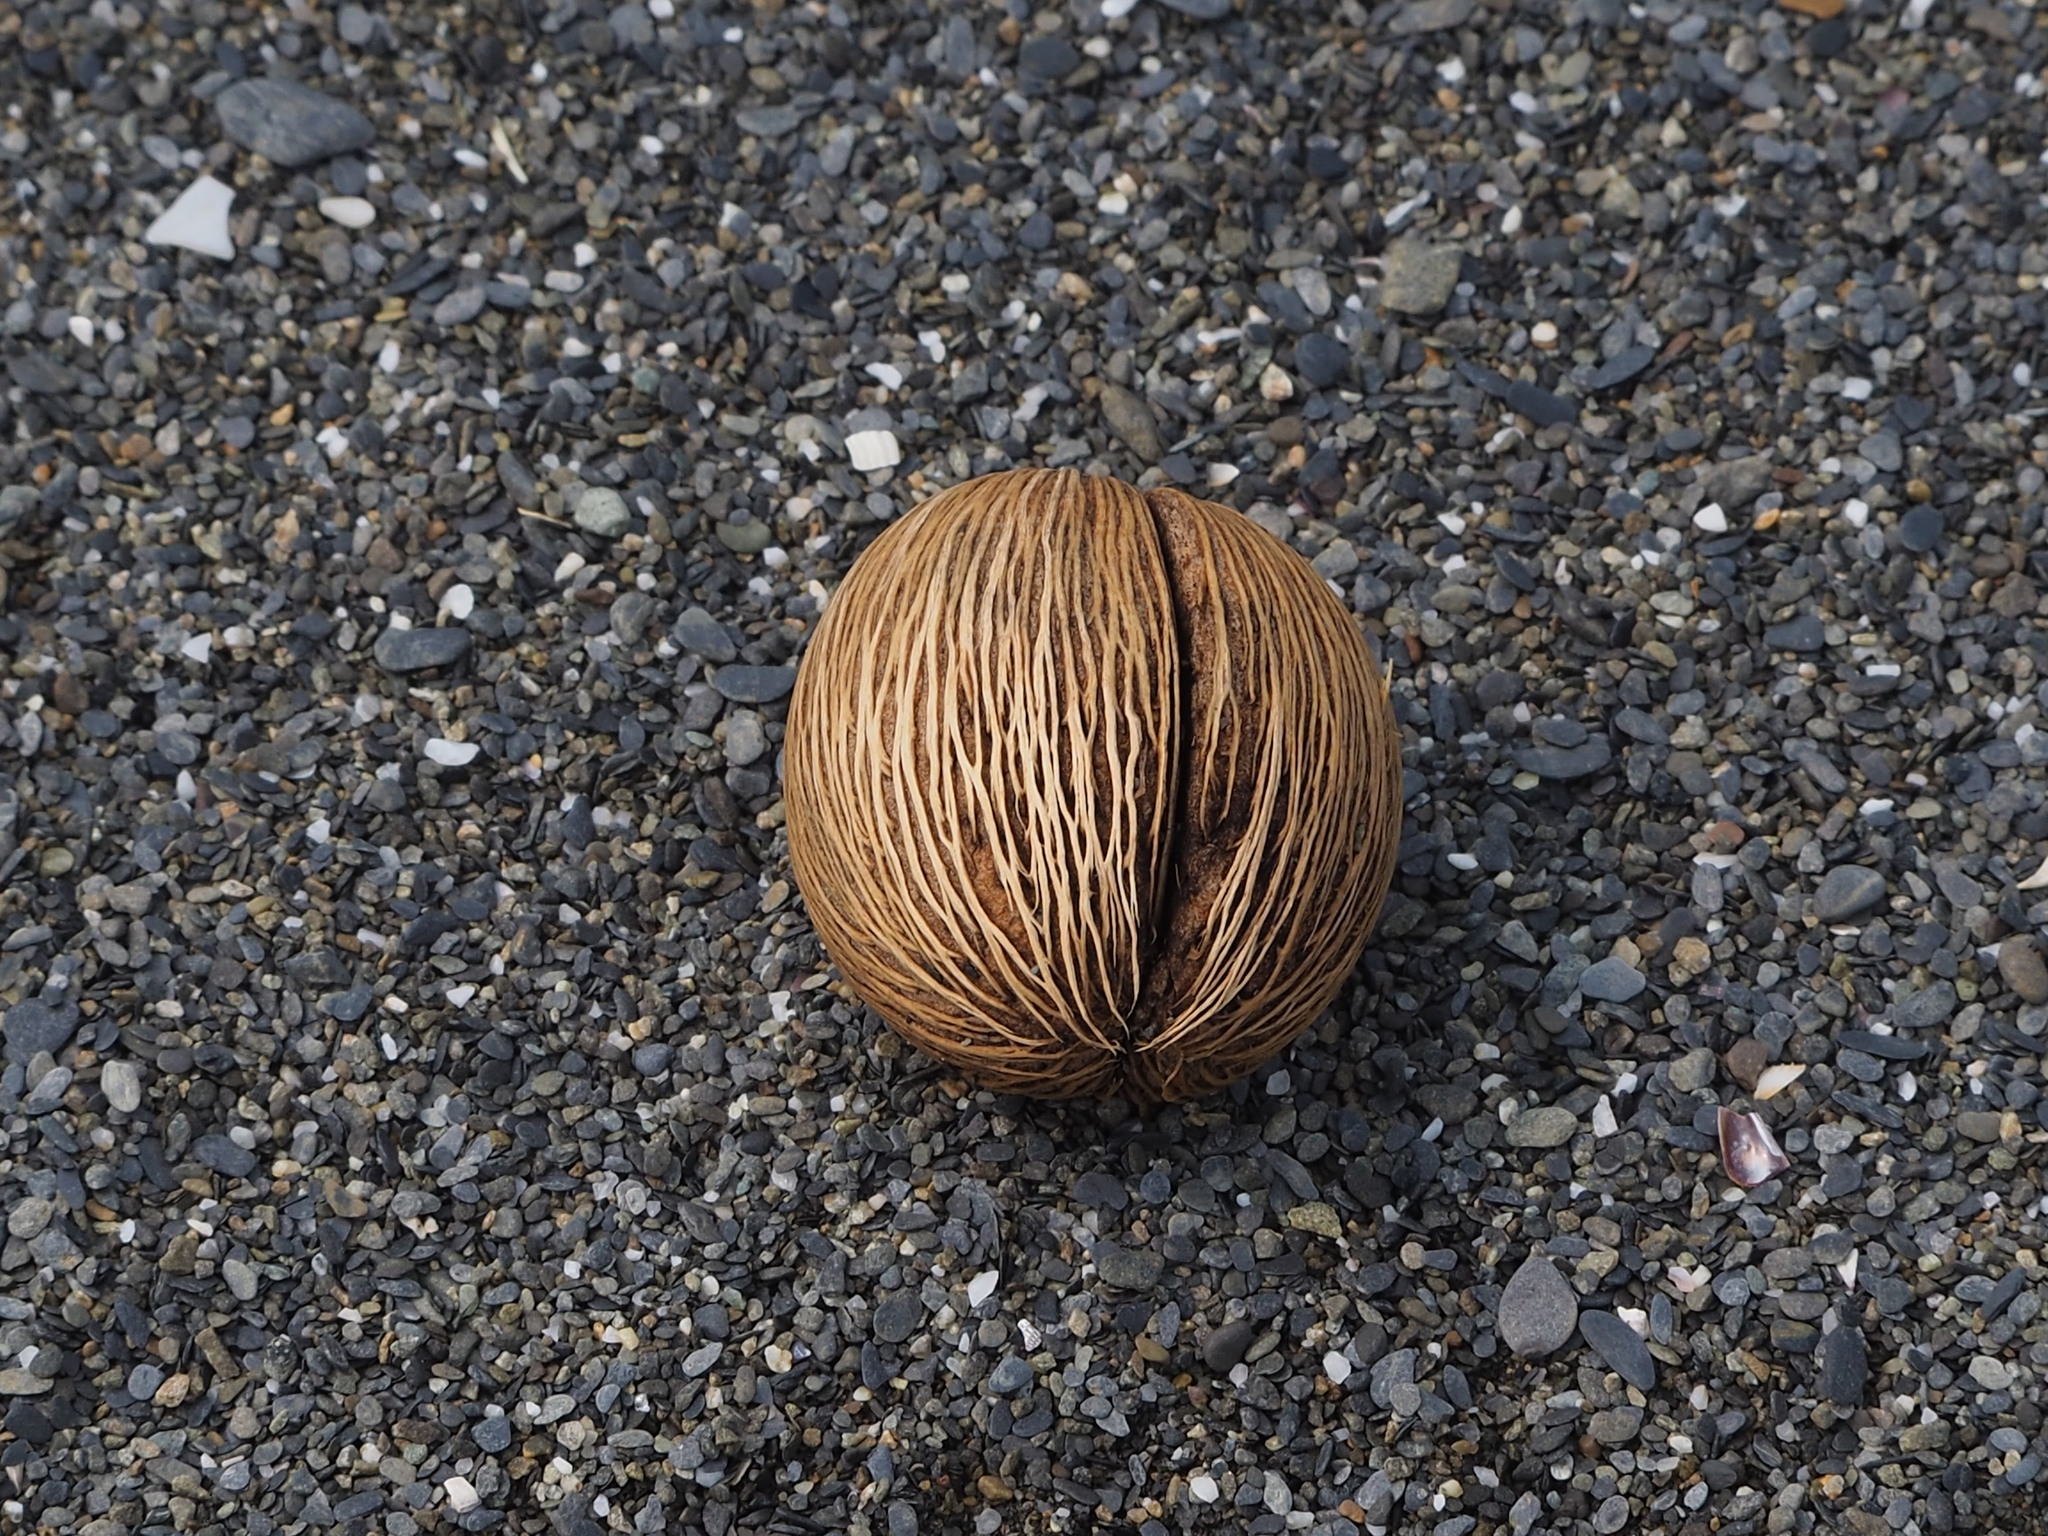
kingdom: Plantae
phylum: Tracheophyta
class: Magnoliopsida
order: Gentianales
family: Apocynaceae
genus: Cerbera
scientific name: Cerbera manghas
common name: Reva
